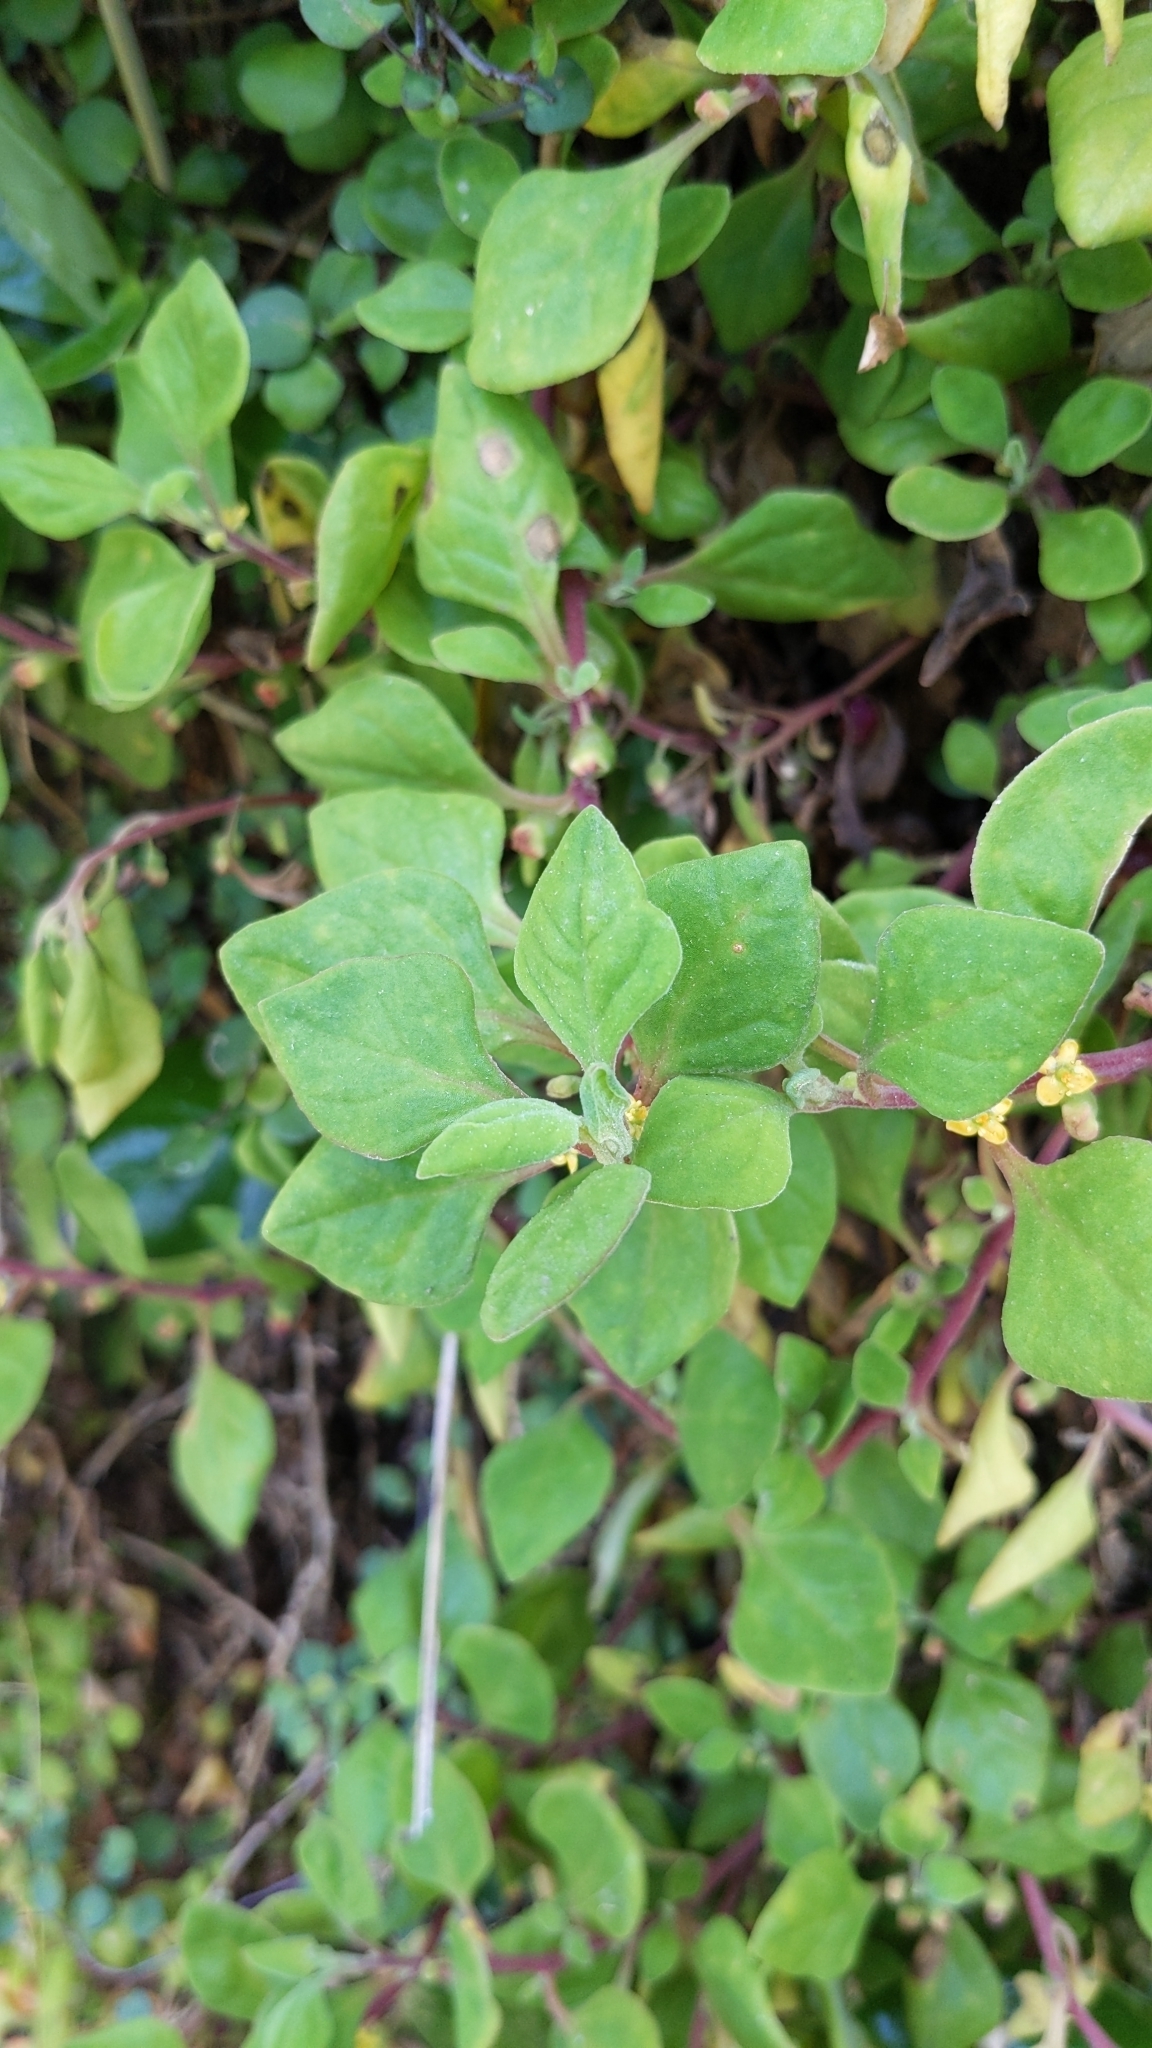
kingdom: Plantae
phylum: Tracheophyta
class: Magnoliopsida
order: Caryophyllales
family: Aizoaceae
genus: Tetragonia
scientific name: Tetragonia implexicoma
